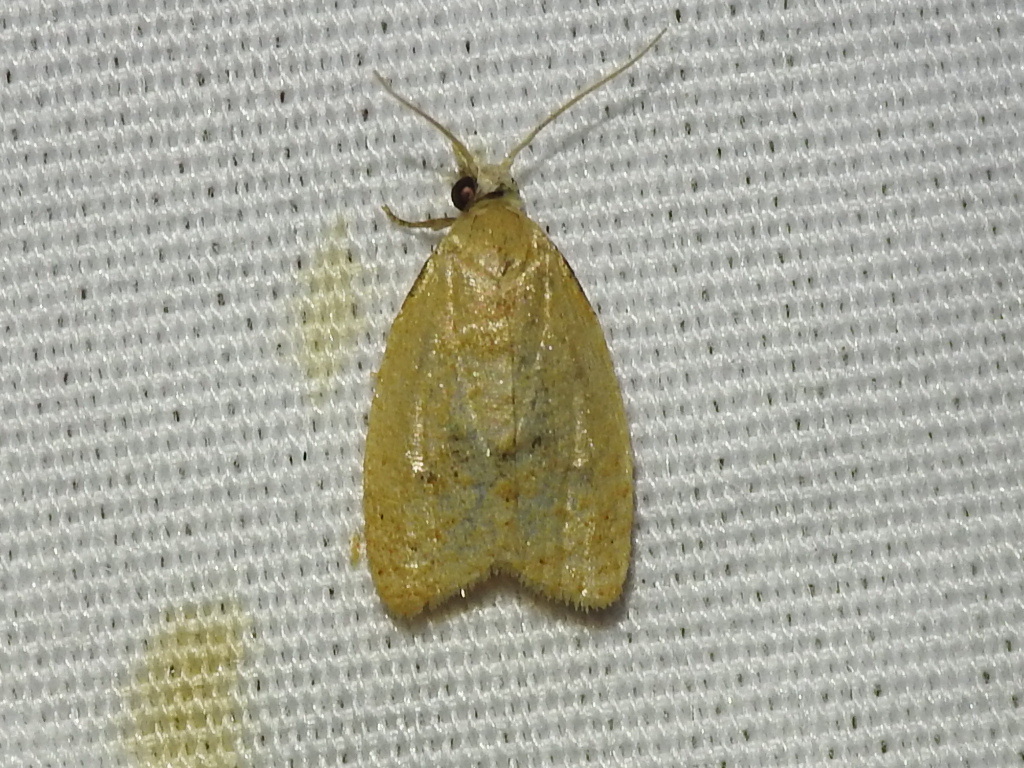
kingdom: Animalia
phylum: Arthropoda
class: Insecta
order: Lepidoptera
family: Tortricidae
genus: Sparganothoides
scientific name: Sparganothoides lentiginosana
